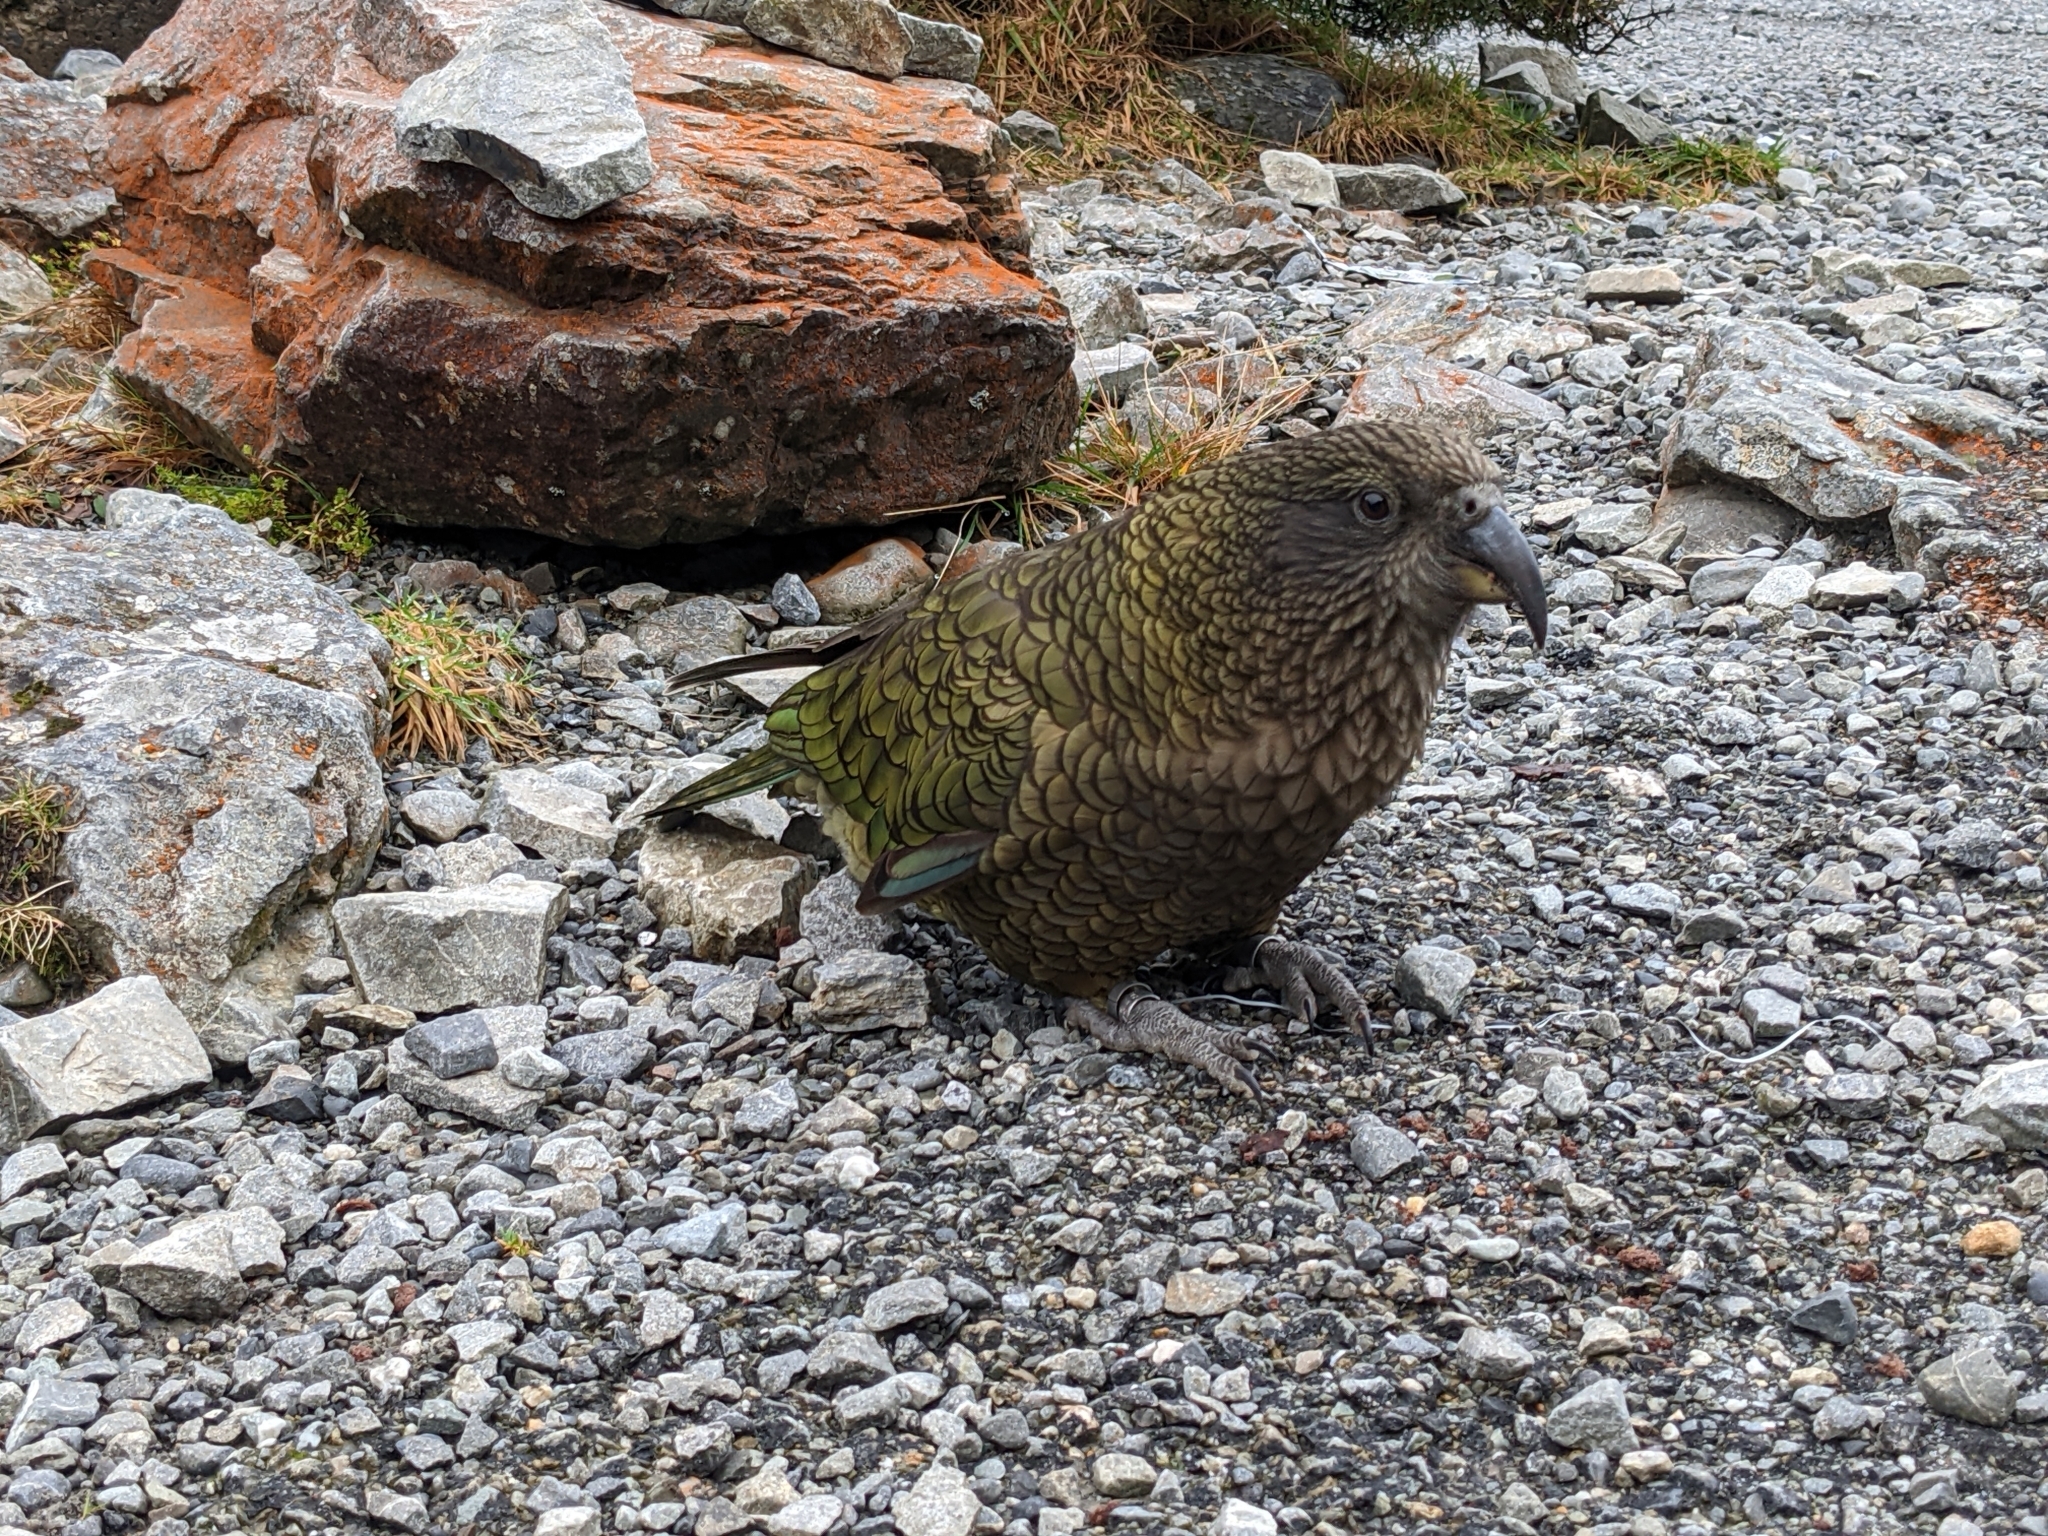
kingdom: Animalia
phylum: Chordata
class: Aves
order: Psittaciformes
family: Psittacidae
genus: Nestor
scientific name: Nestor notabilis
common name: Kea
